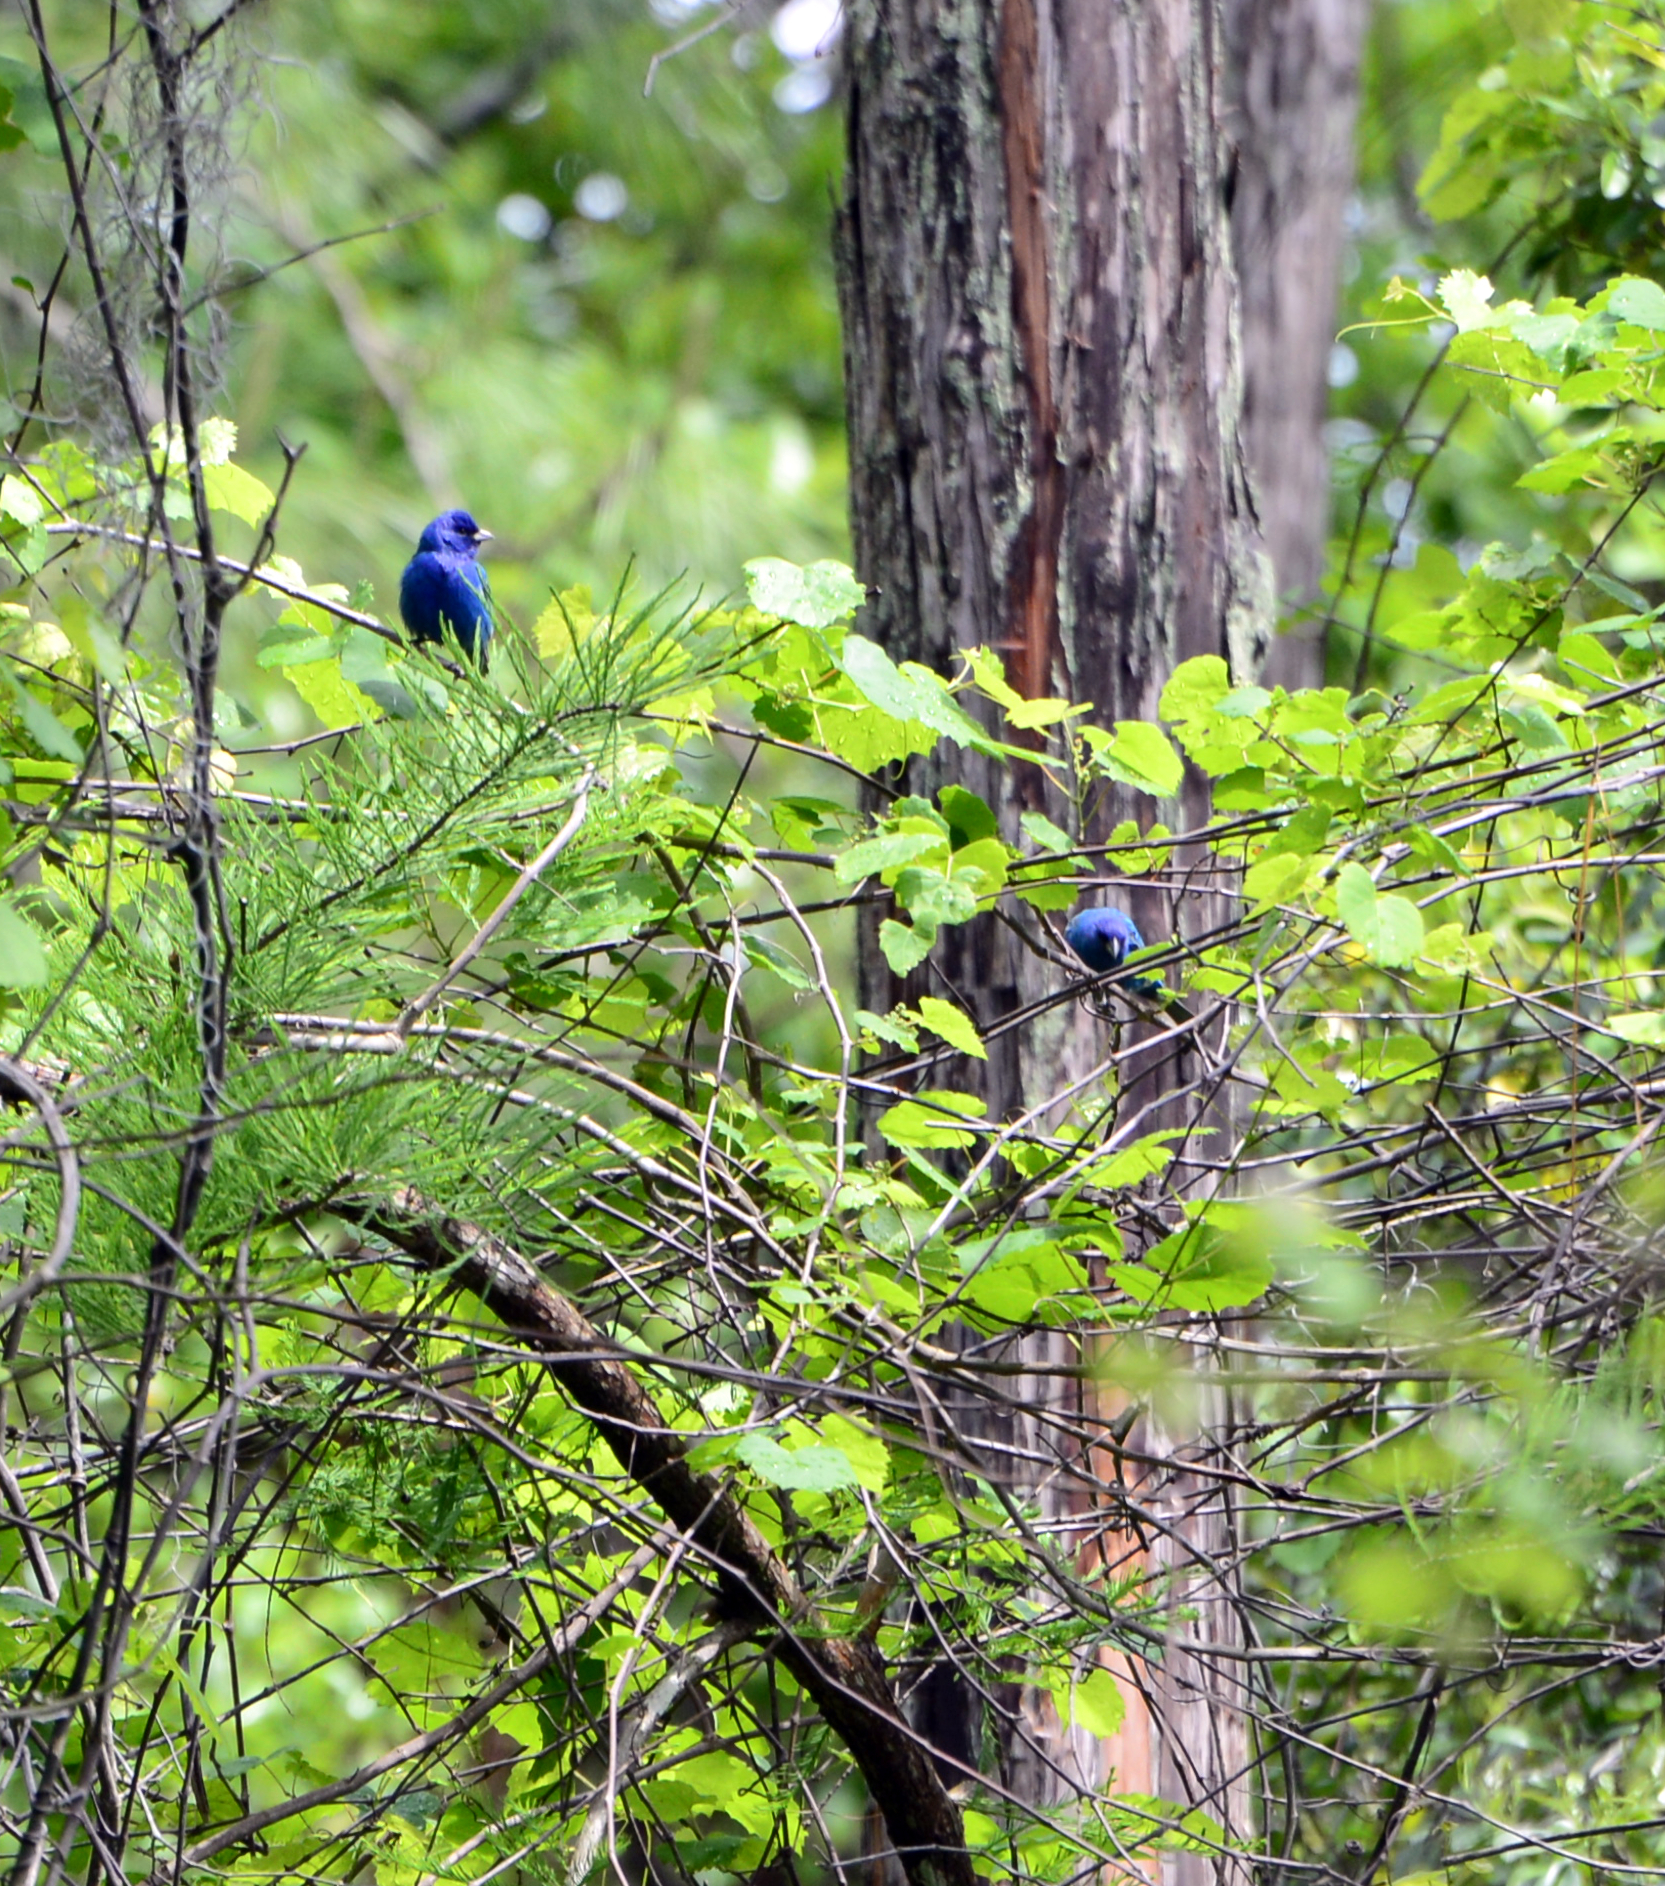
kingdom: Animalia
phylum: Chordata
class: Aves
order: Passeriformes
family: Cardinalidae
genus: Passerina
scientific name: Passerina cyanea
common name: Indigo bunting
